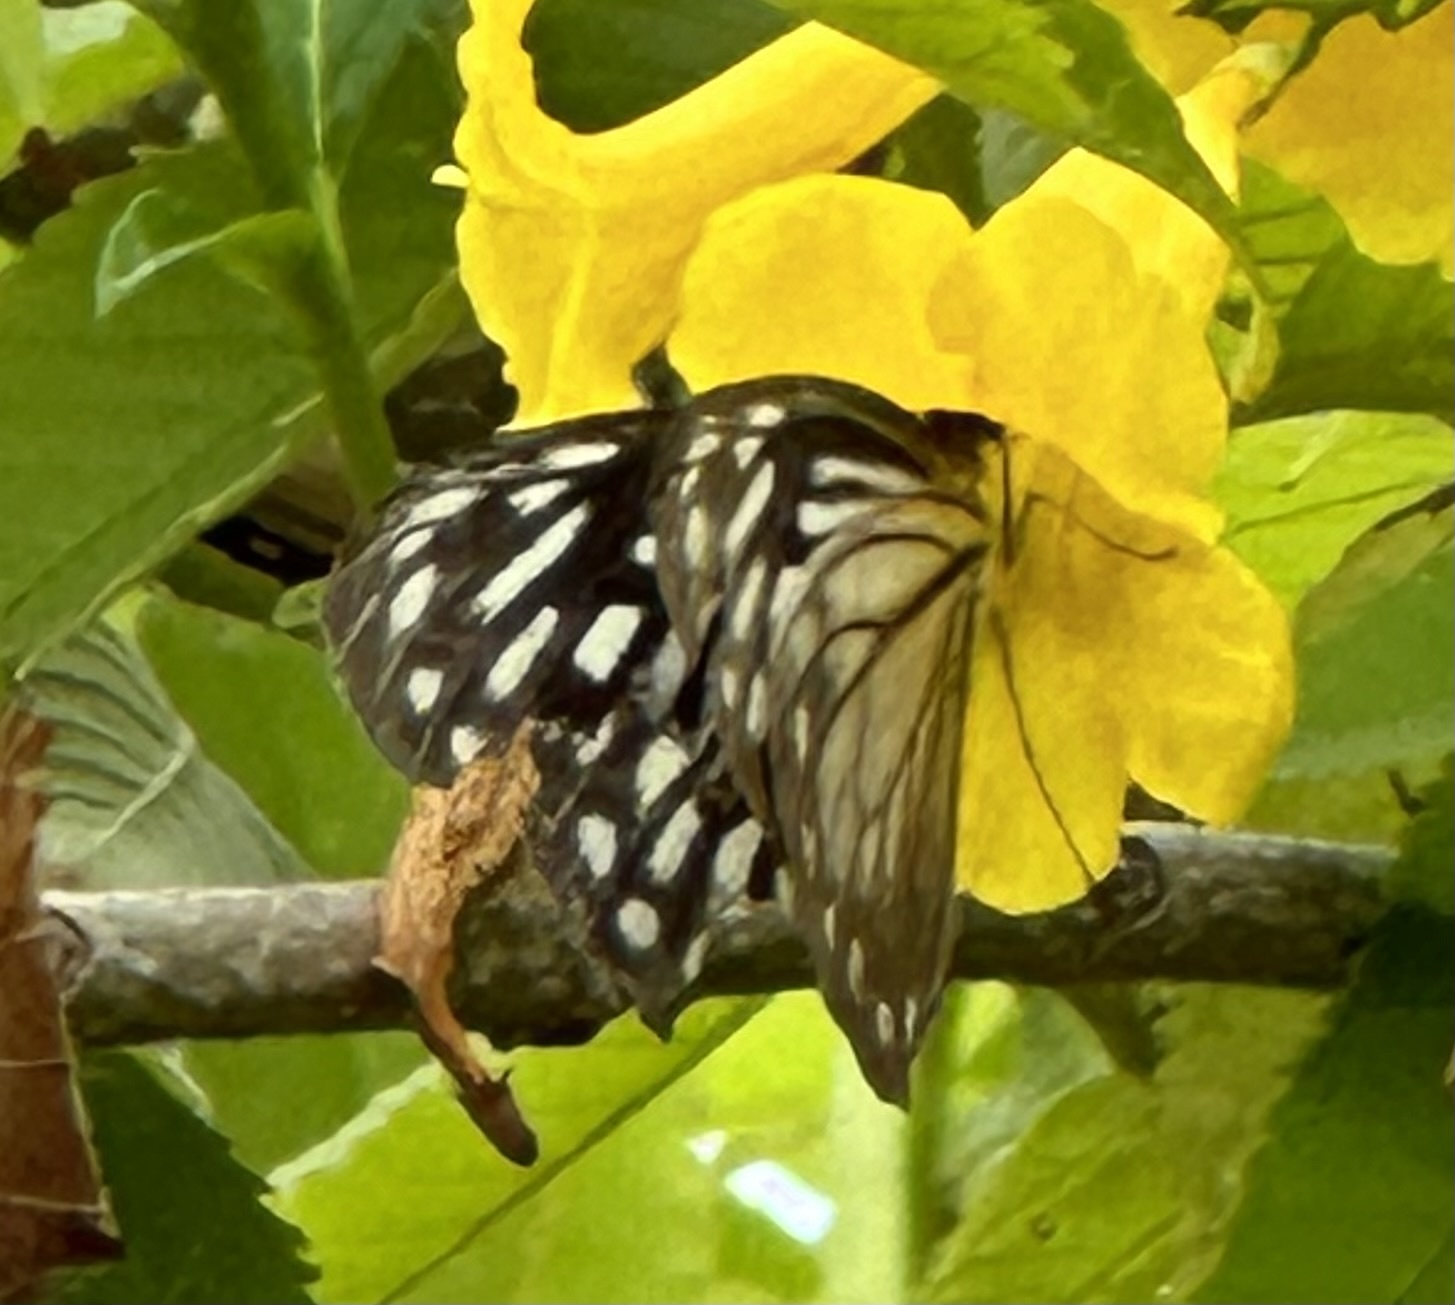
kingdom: Animalia
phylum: Arthropoda
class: Insecta
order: Lepidoptera
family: Pieridae
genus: Pareronia
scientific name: Pareronia hippia
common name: Indian wanderer
